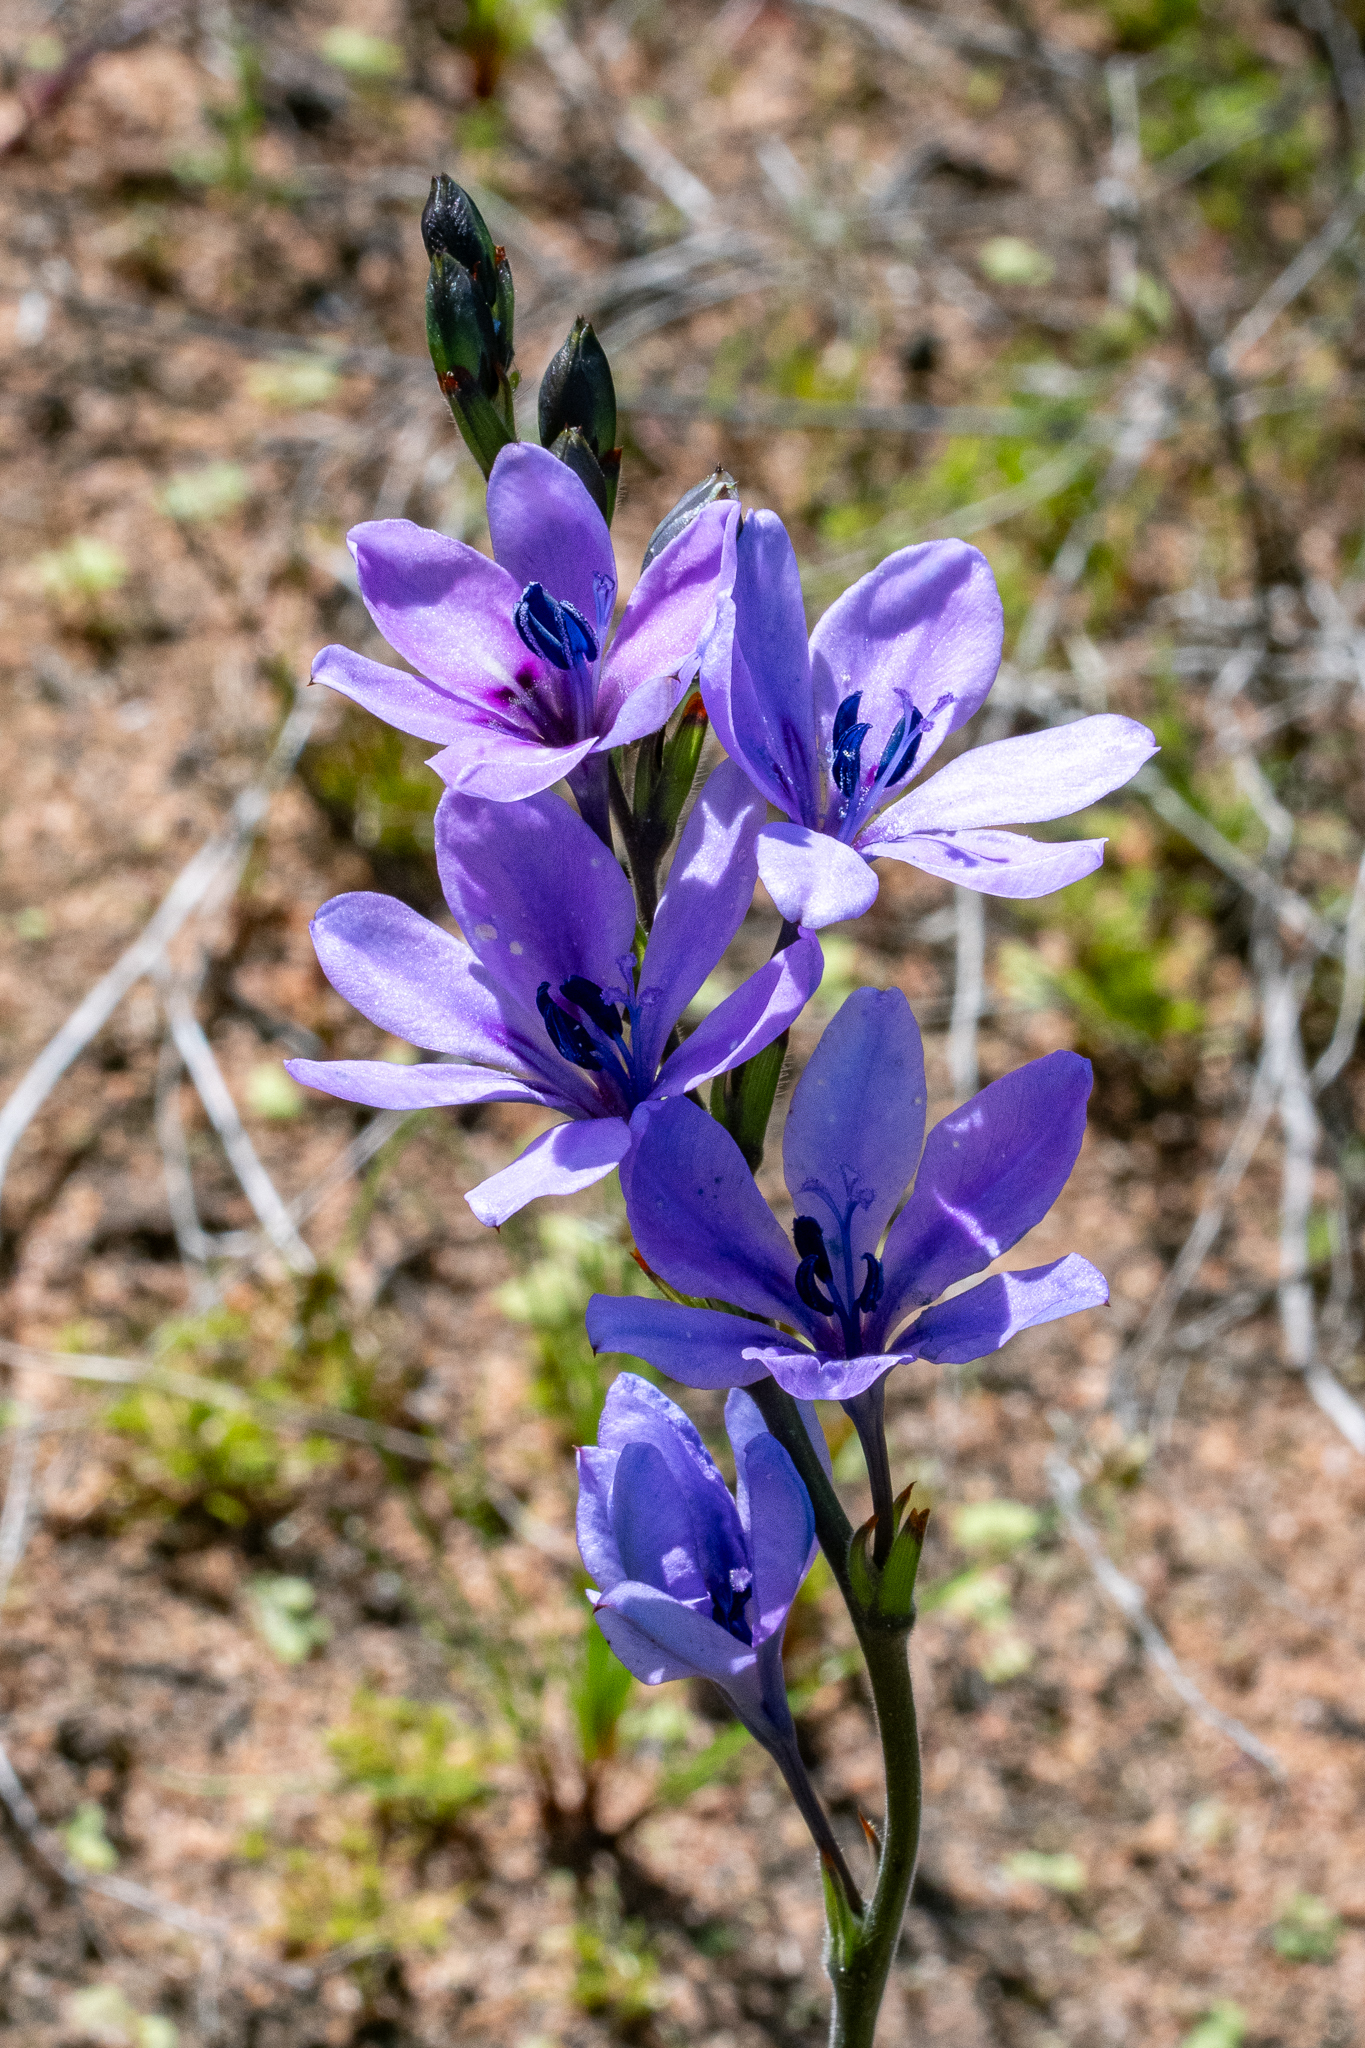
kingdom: Plantae
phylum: Tracheophyta
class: Liliopsida
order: Asparagales
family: Iridaceae
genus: Babiana
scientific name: Babiana nervosa
